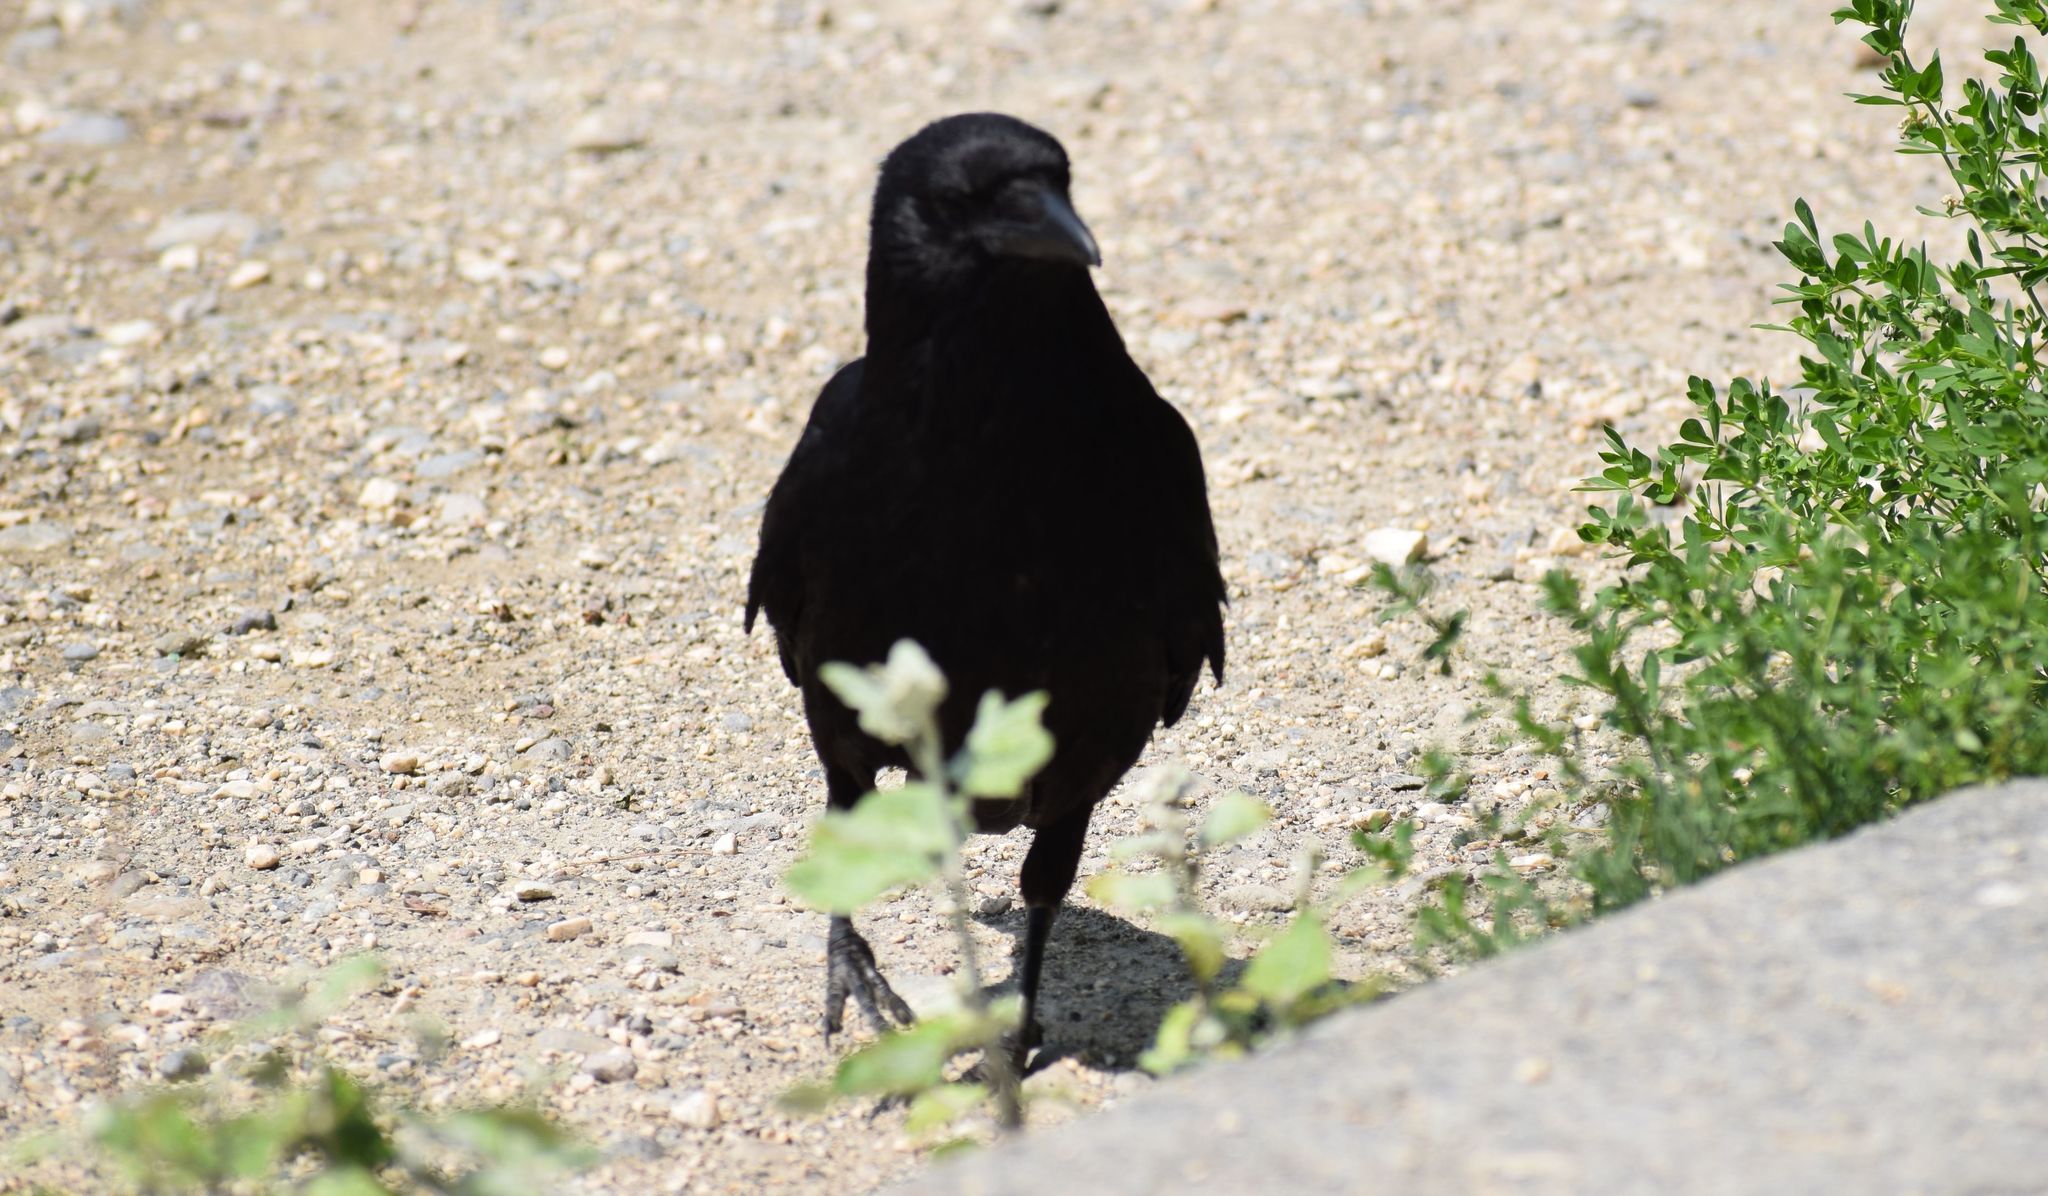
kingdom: Animalia
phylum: Chordata
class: Aves
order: Passeriformes
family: Corvidae
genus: Corvus
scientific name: Corvus corone
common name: Carrion crow
